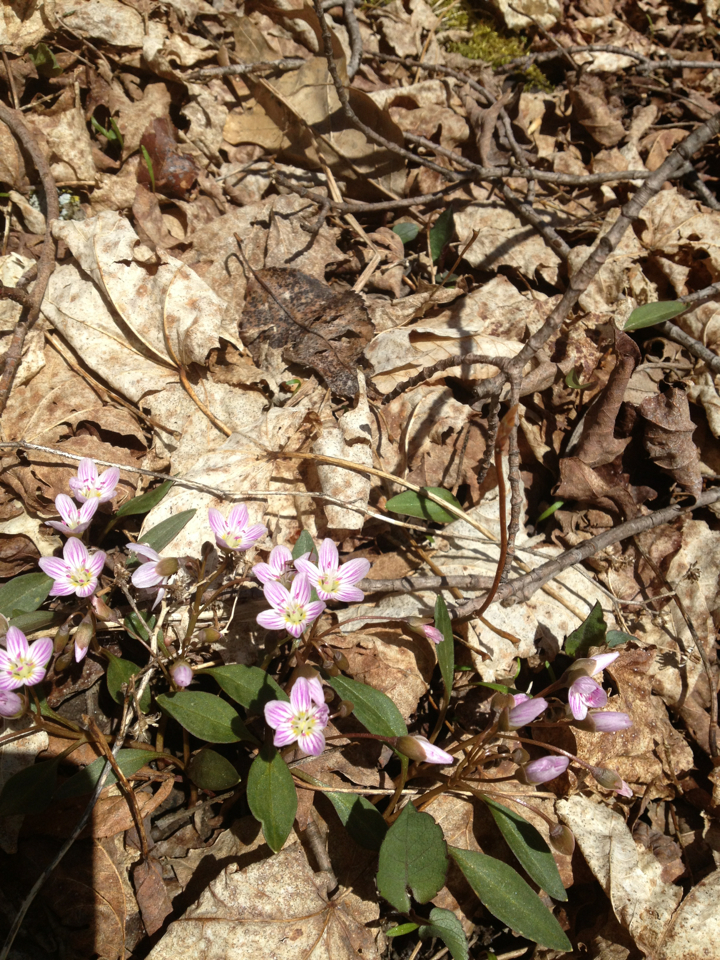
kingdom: Plantae
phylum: Tracheophyta
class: Magnoliopsida
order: Caryophyllales
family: Montiaceae
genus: Claytonia
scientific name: Claytonia caroliniana
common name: Carolina spring beauty
